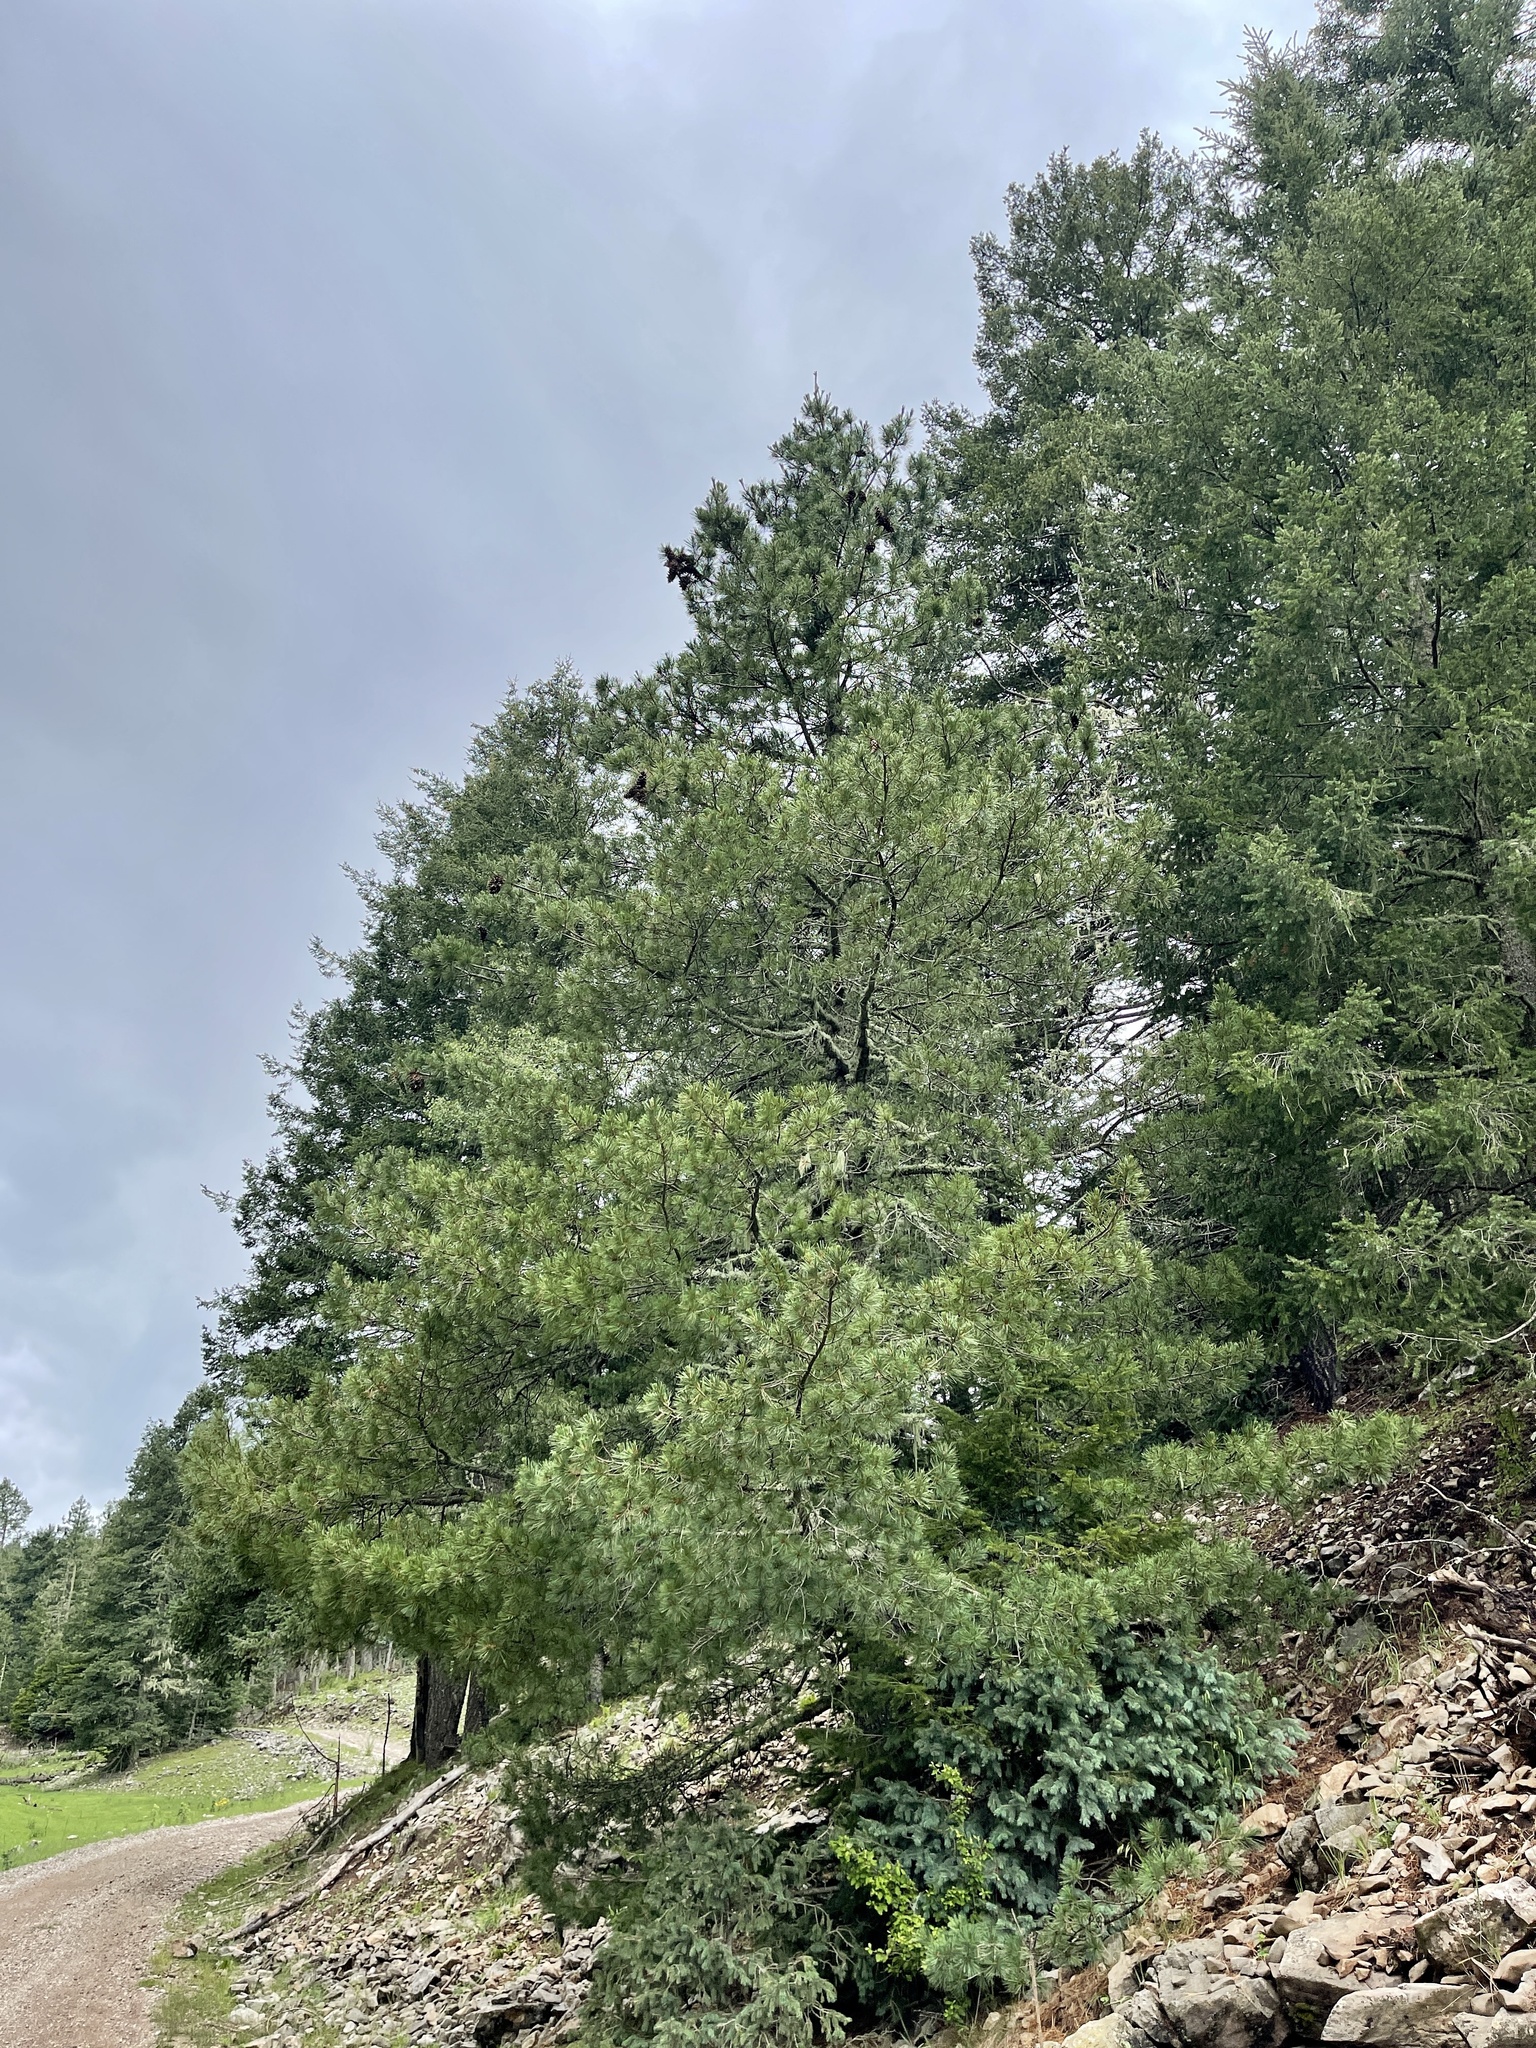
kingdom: Plantae
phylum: Tracheophyta
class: Pinopsida
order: Pinales
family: Pinaceae
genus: Pinus
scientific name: Pinus strobiformis
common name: Southwestern white pine
